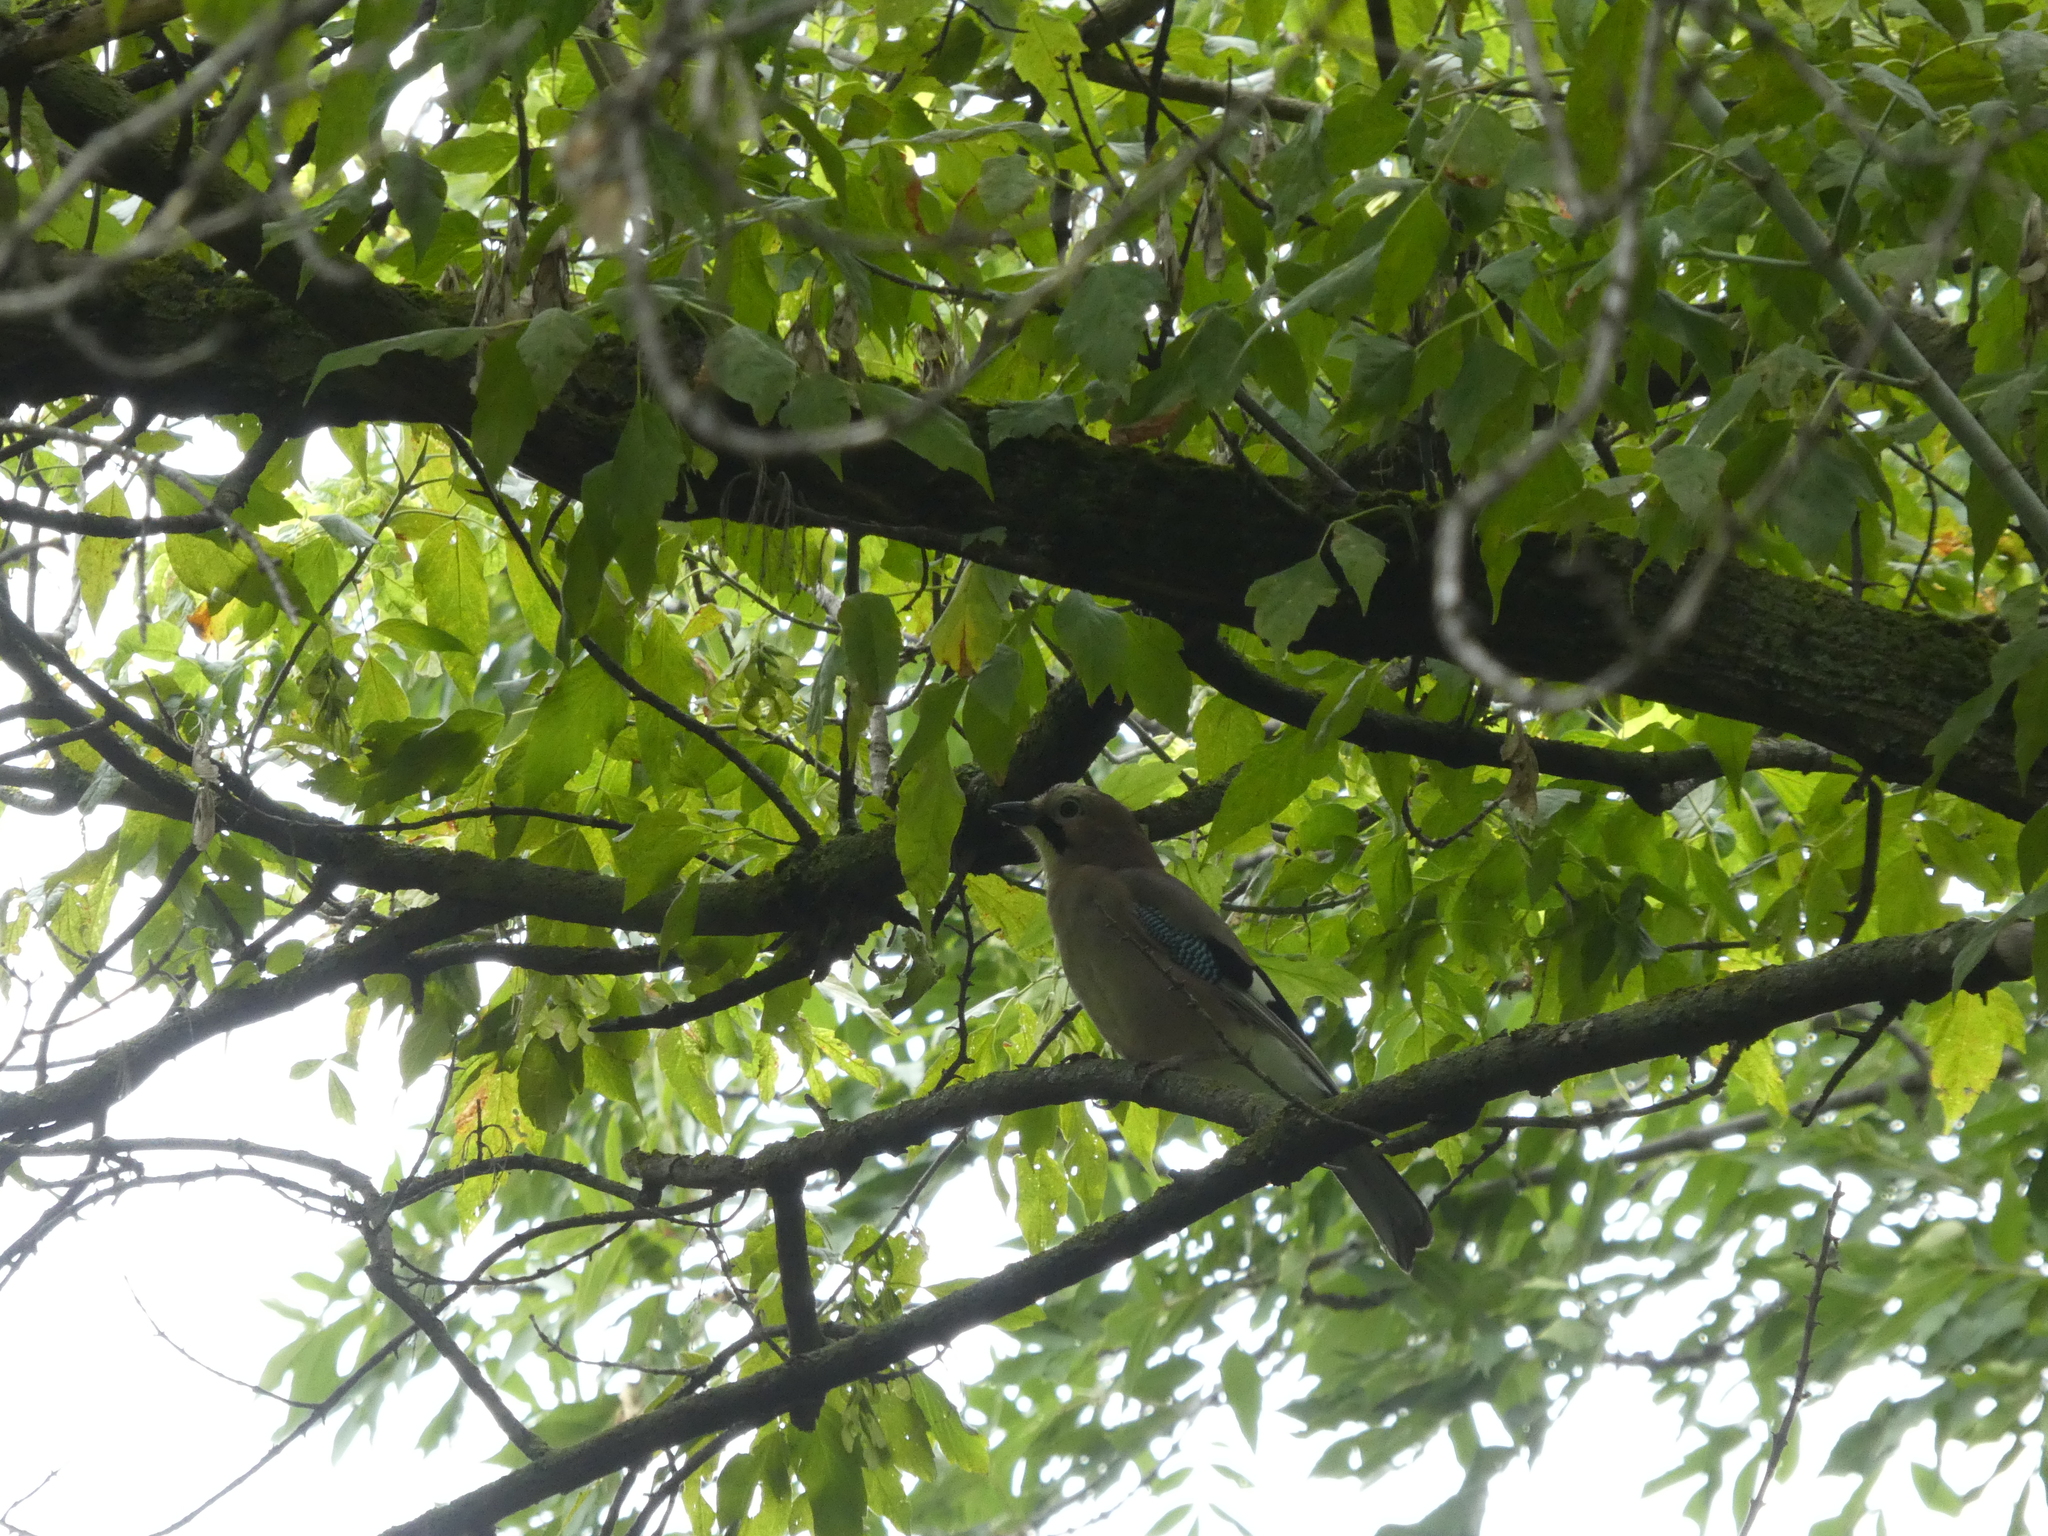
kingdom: Animalia
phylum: Chordata
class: Aves
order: Passeriformes
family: Corvidae
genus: Garrulus
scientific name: Garrulus glandarius
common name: Eurasian jay
